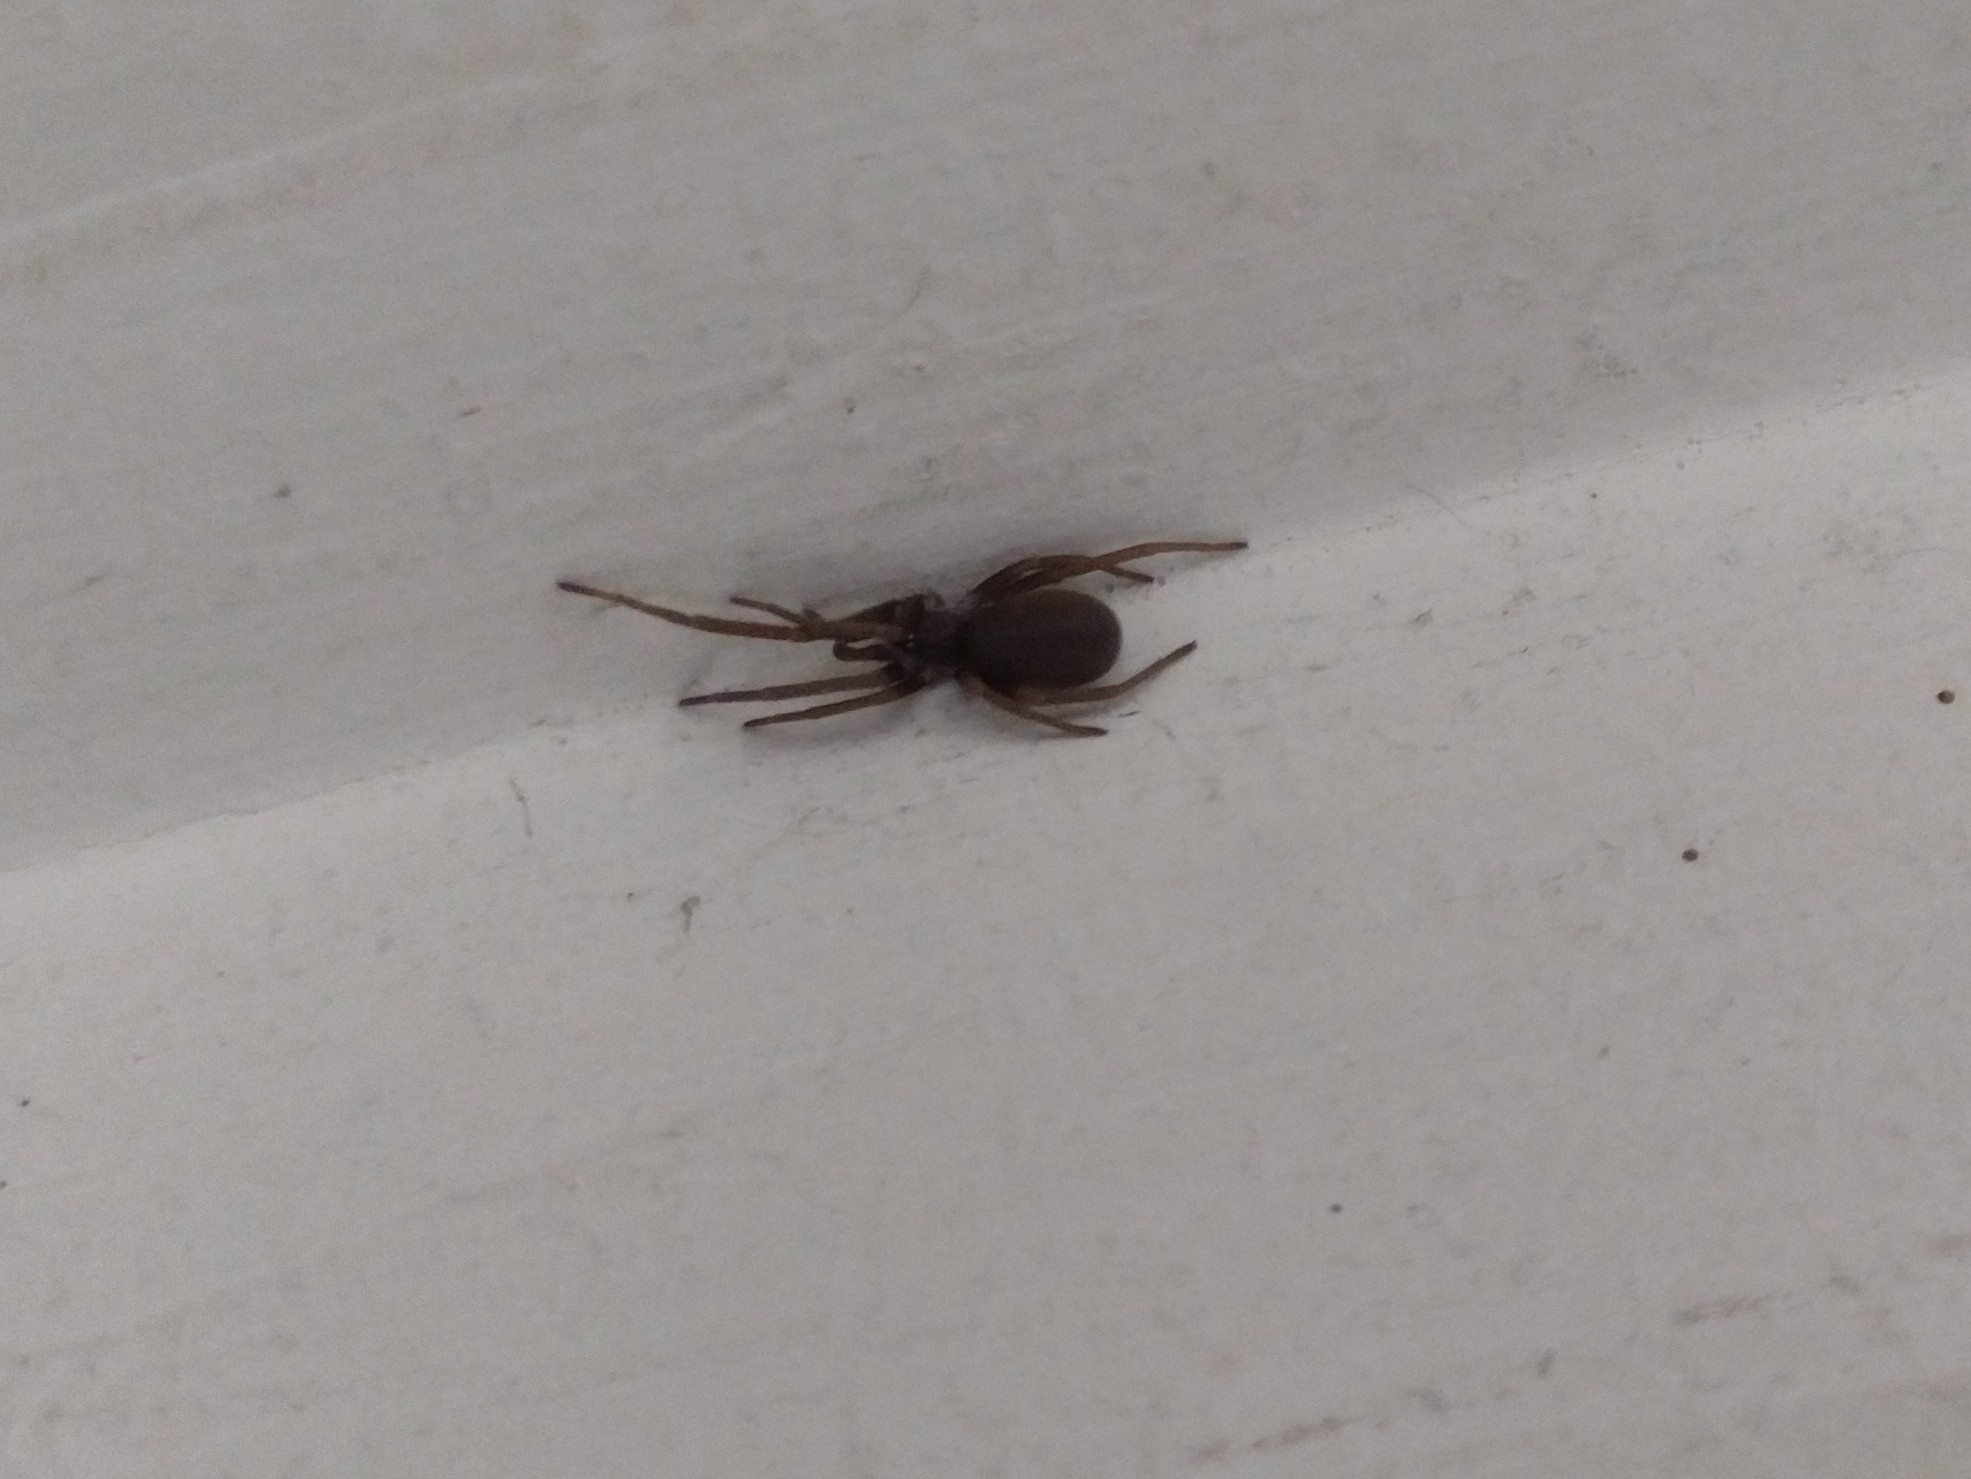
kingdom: Animalia
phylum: Arthropoda
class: Arachnida
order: Araneae
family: Filistatidae
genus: Kukulcania
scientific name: Kukulcania hibernalis
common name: Crevice weaver
